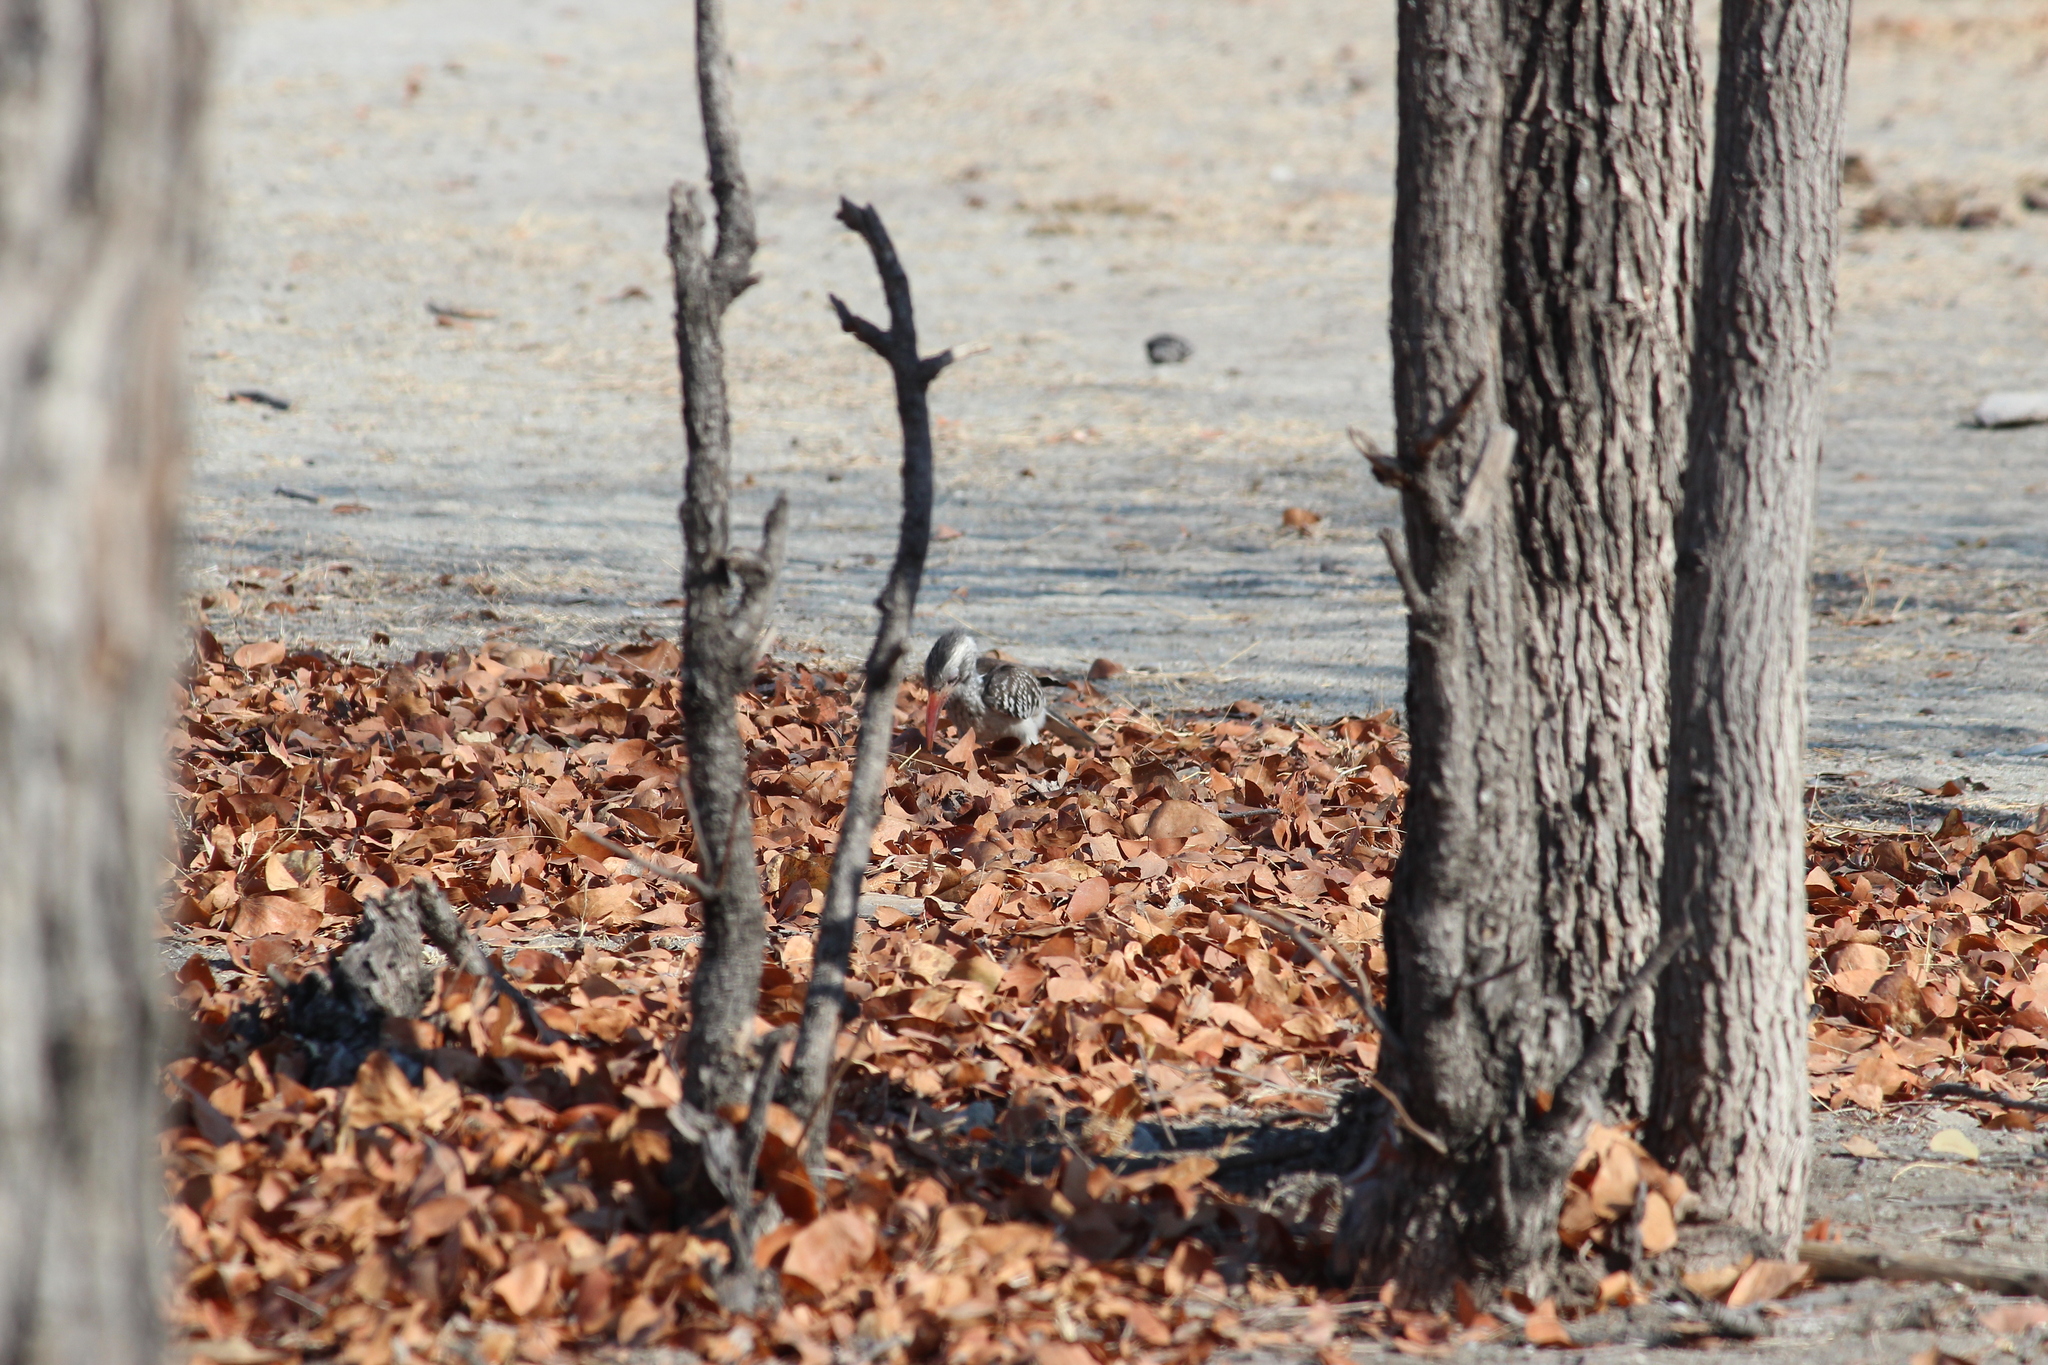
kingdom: Animalia
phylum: Chordata
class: Aves
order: Bucerotiformes
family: Bucerotidae
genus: Tockus
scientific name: Tockus rufirostris
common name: Southern red-billed hornbill
